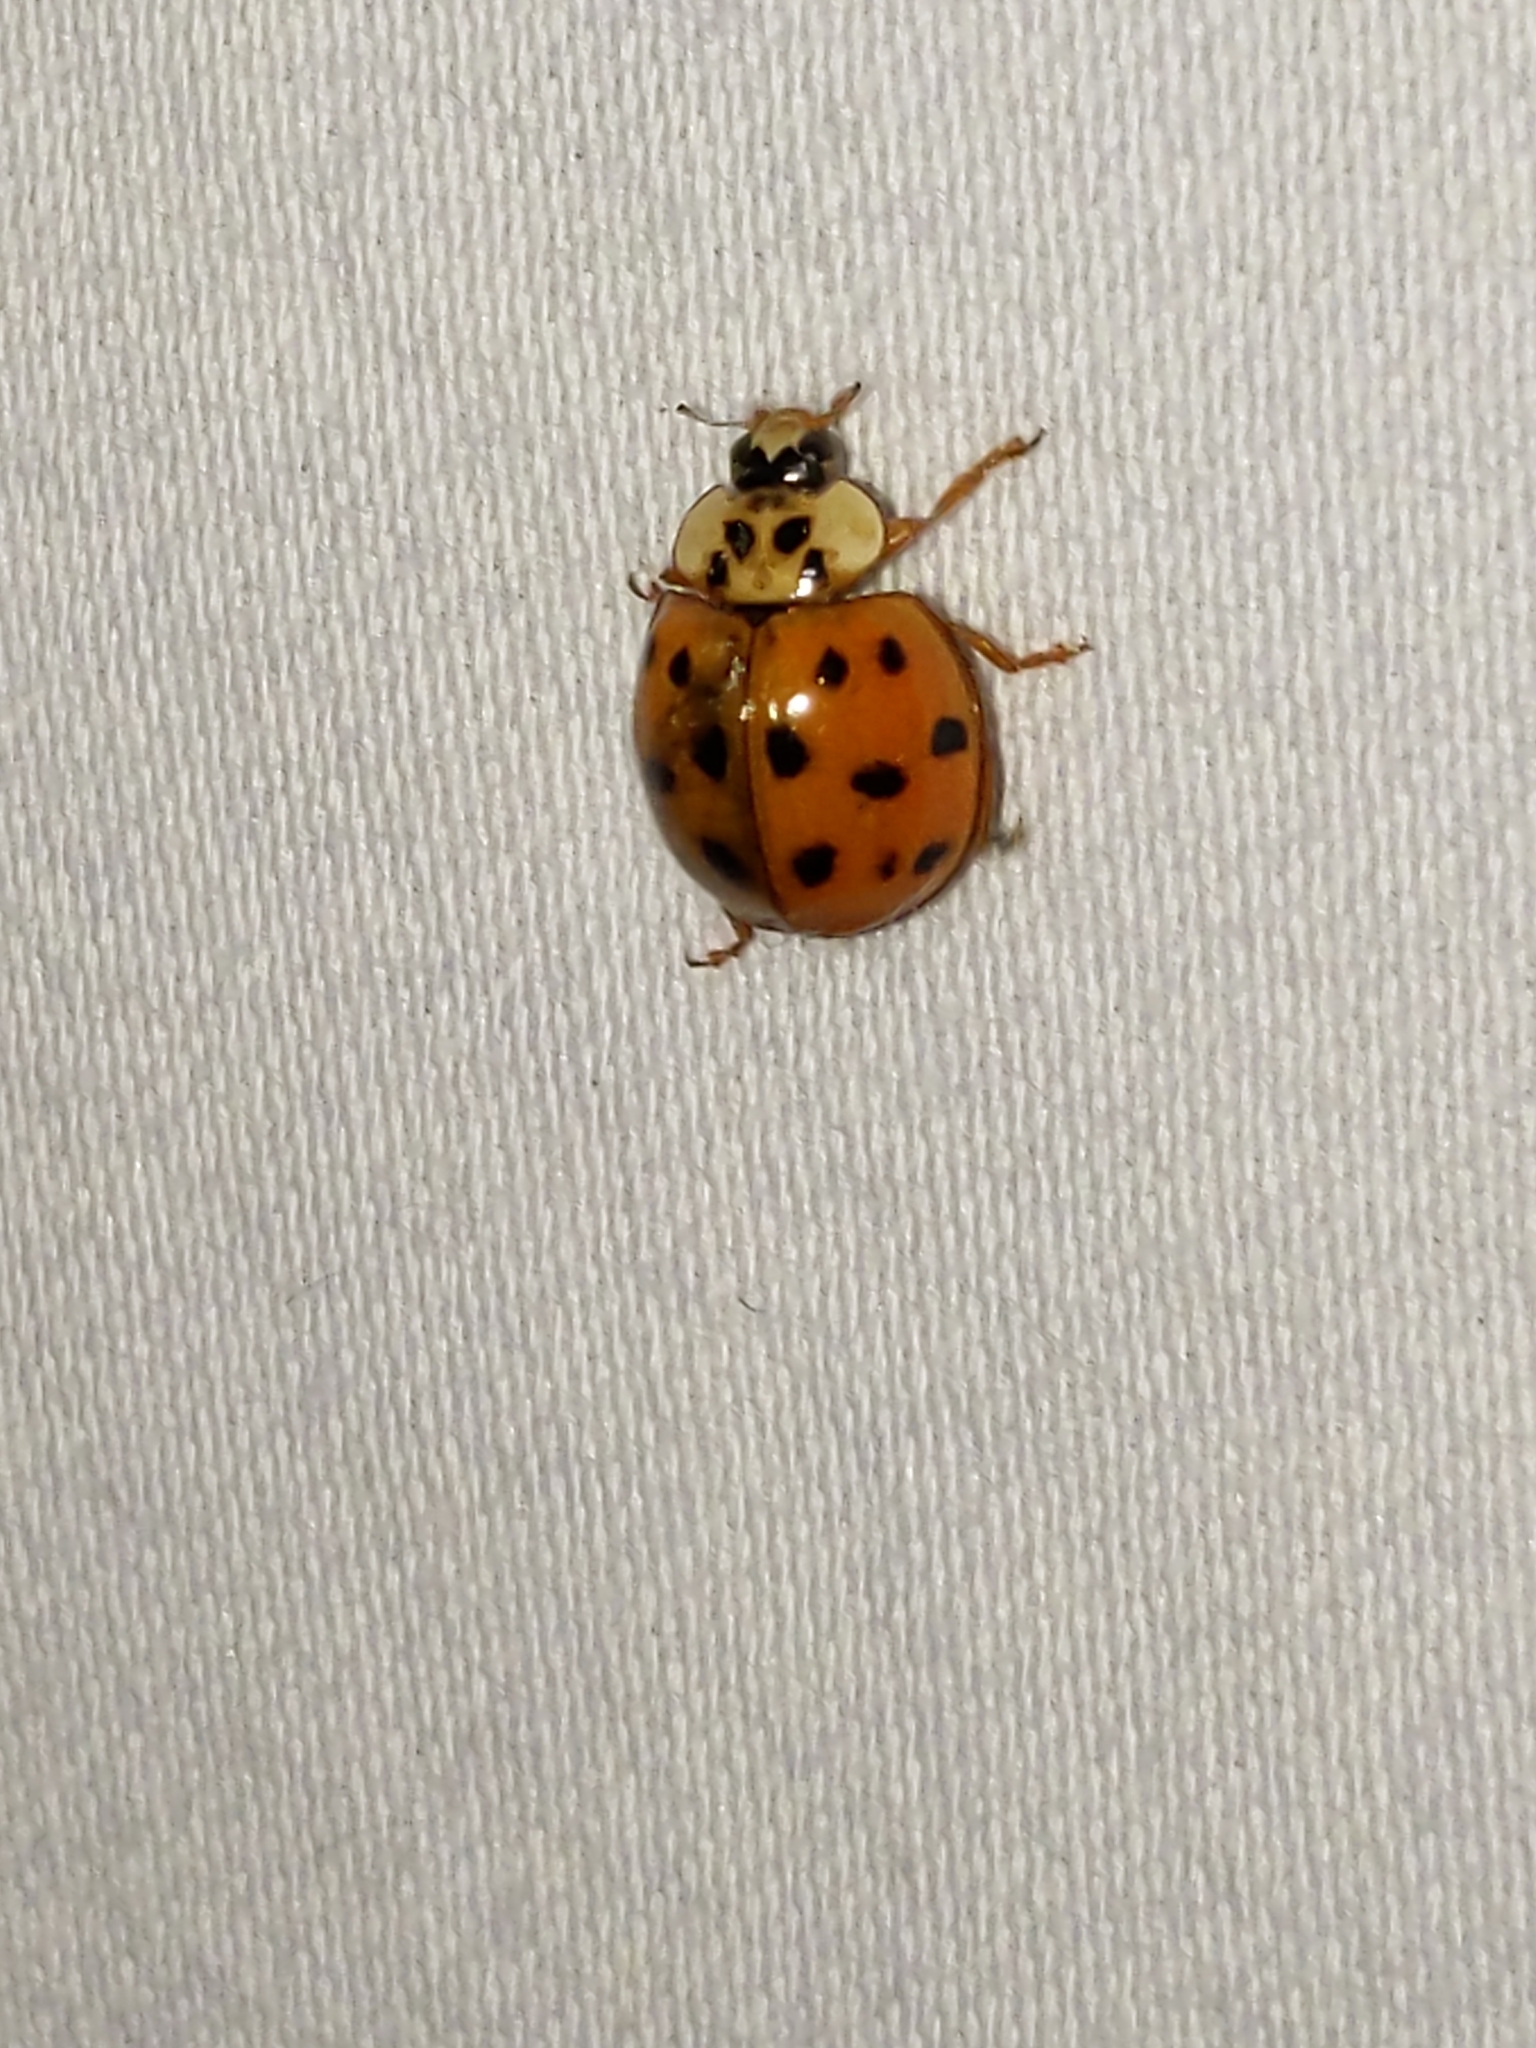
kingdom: Animalia
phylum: Arthropoda
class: Insecta
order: Coleoptera
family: Coccinellidae
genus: Harmonia
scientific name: Harmonia axyridis
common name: Harlequin ladybird
